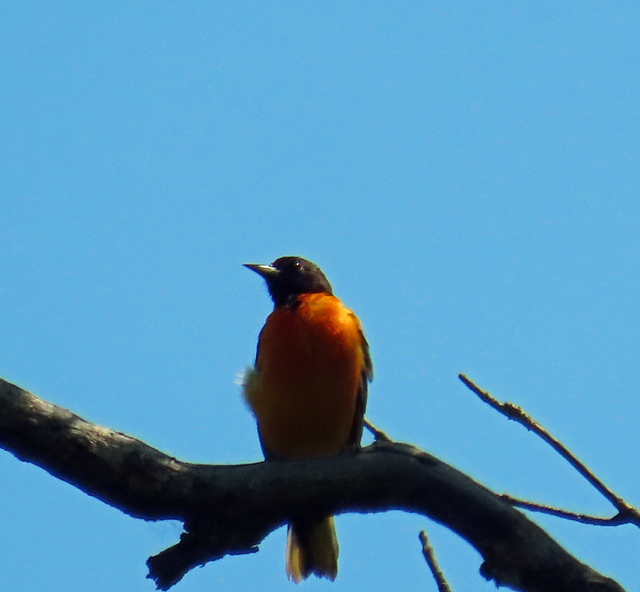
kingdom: Animalia
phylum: Chordata
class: Aves
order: Passeriformes
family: Icteridae
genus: Icterus
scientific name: Icterus galbula
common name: Baltimore oriole
